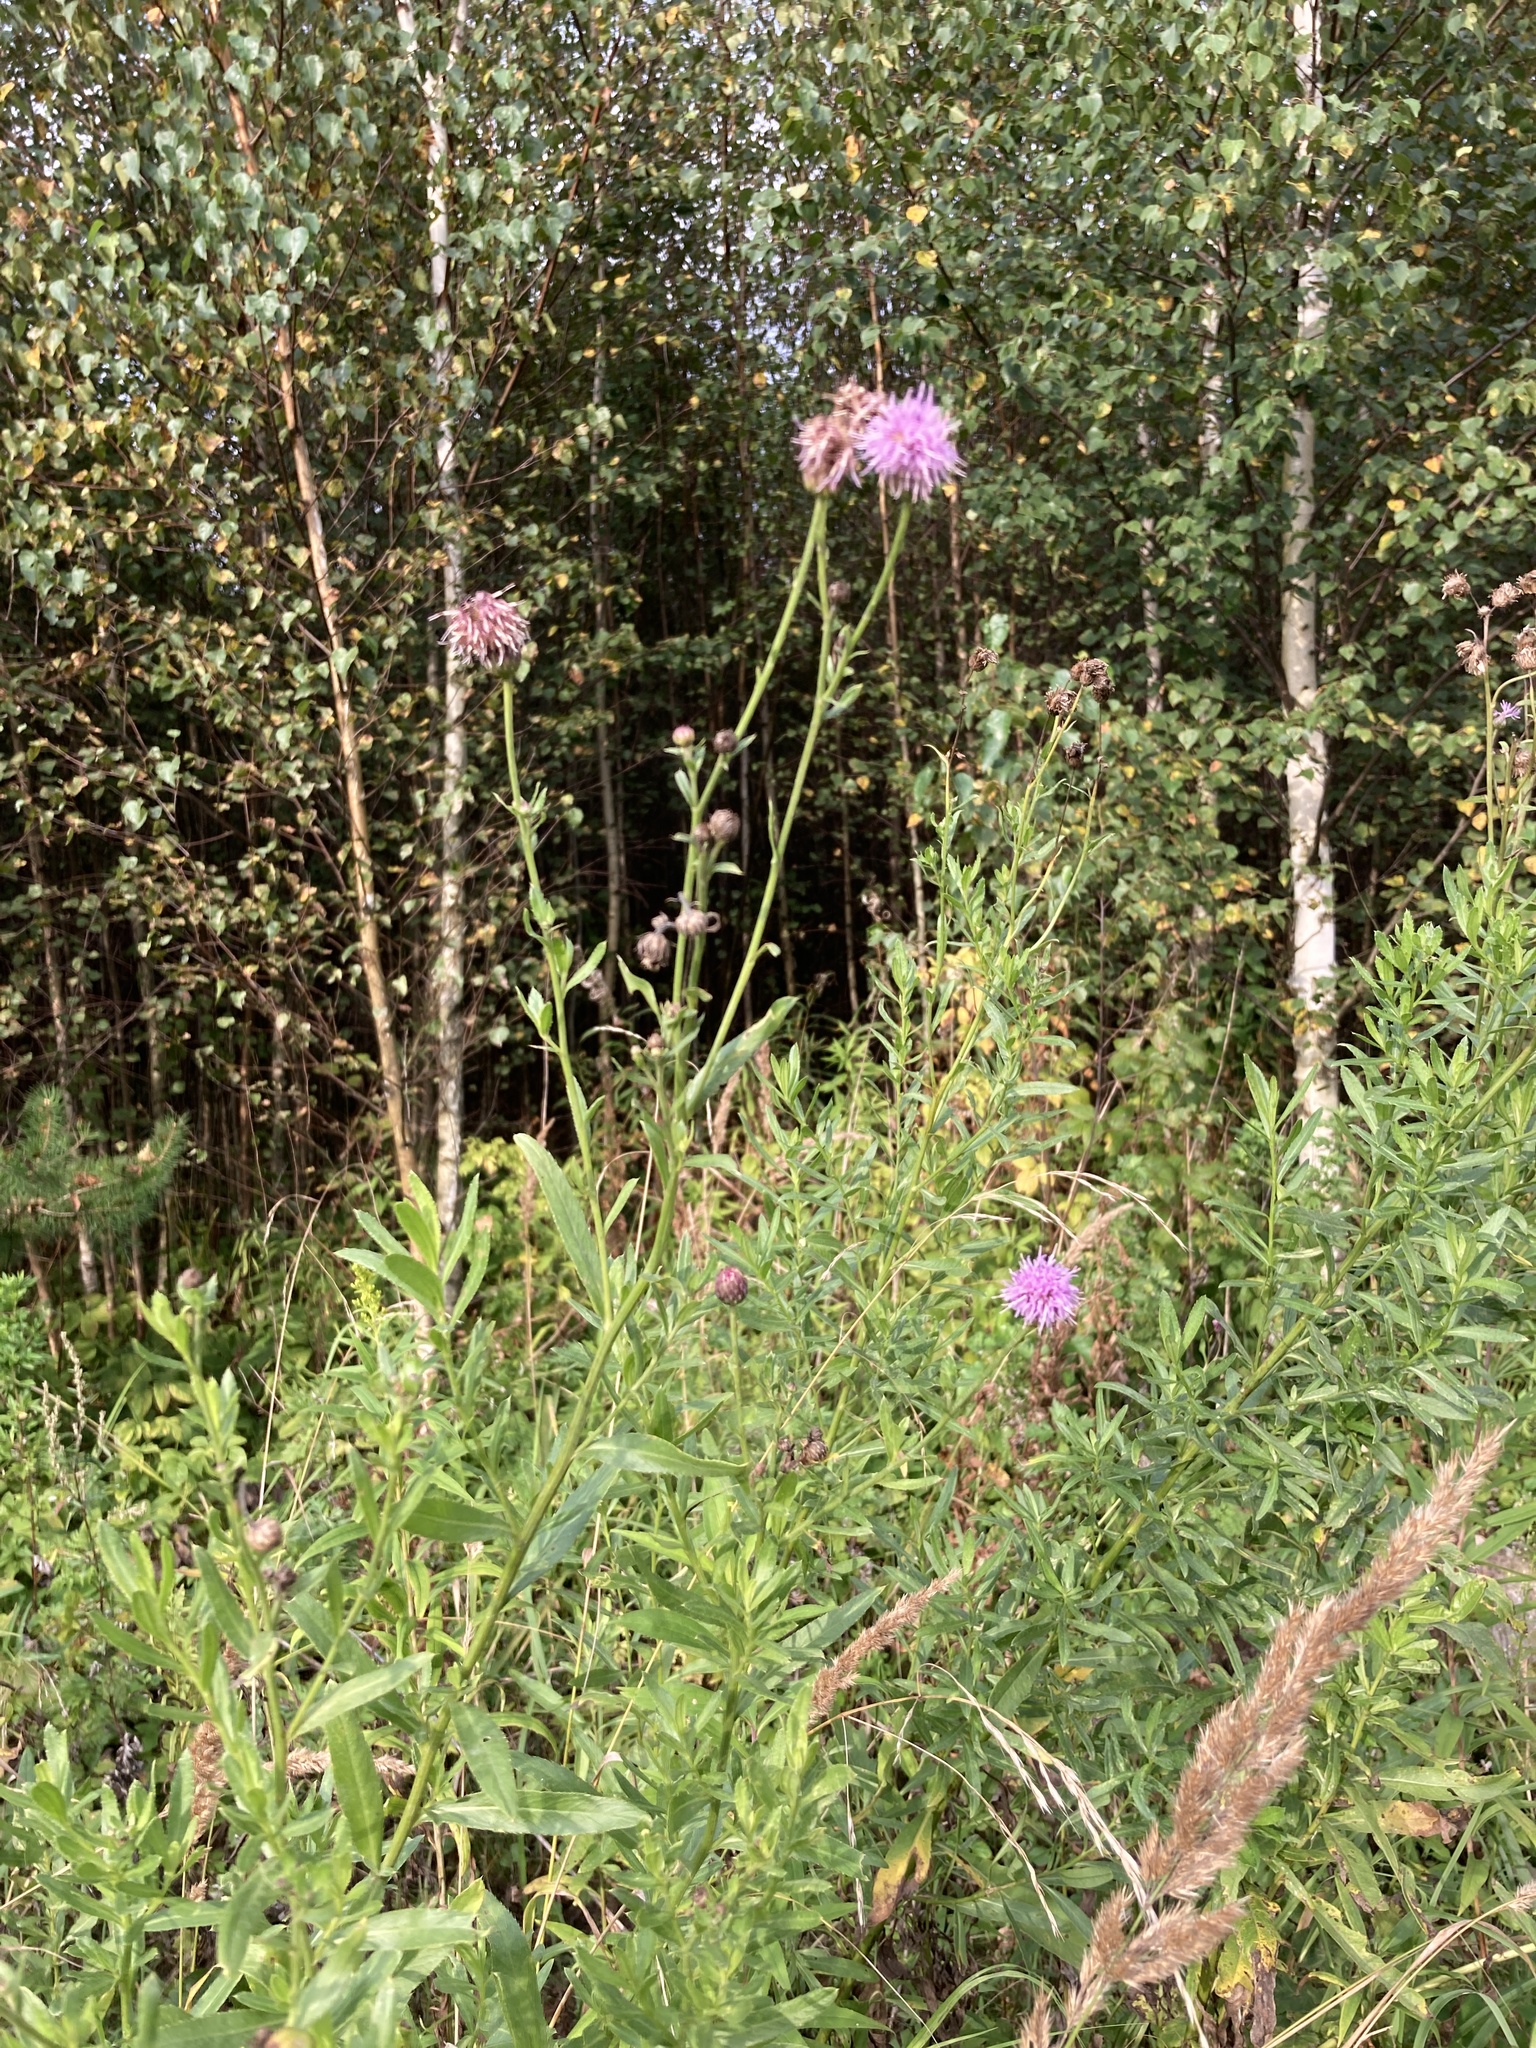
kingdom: Plantae
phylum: Tracheophyta
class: Magnoliopsida
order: Asterales
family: Asteraceae
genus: Cirsium
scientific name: Cirsium arvense
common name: Creeping thistle
